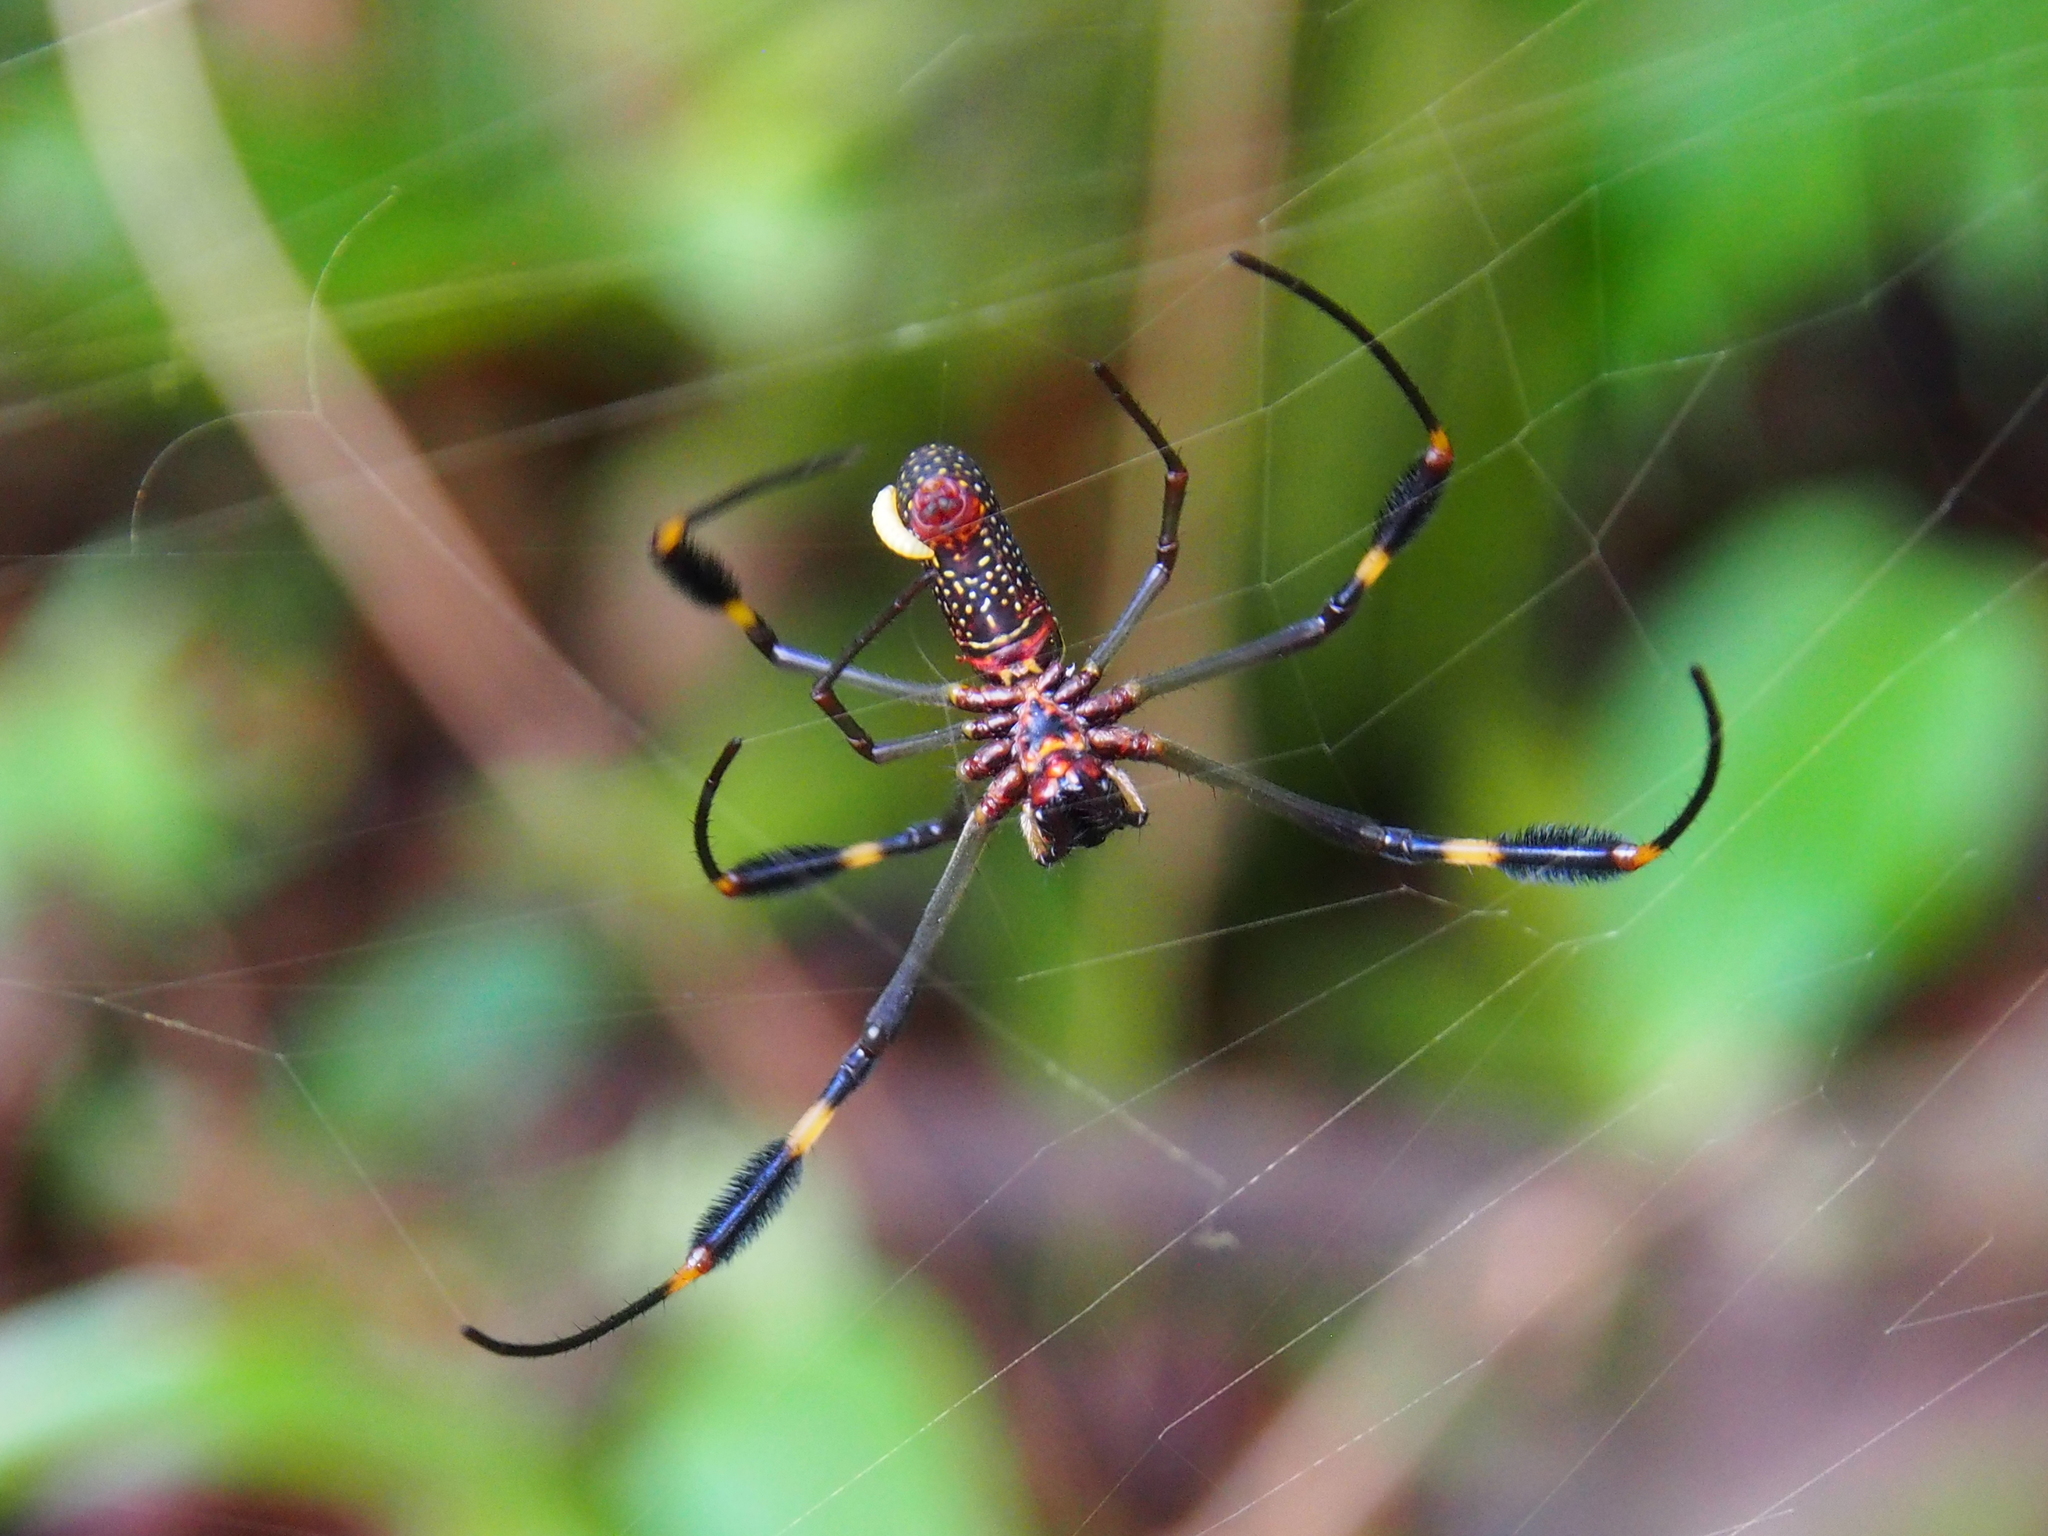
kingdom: Animalia
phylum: Arthropoda
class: Arachnida
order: Araneae
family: Araneidae
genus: Trichonephila
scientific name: Trichonephila clavipes
